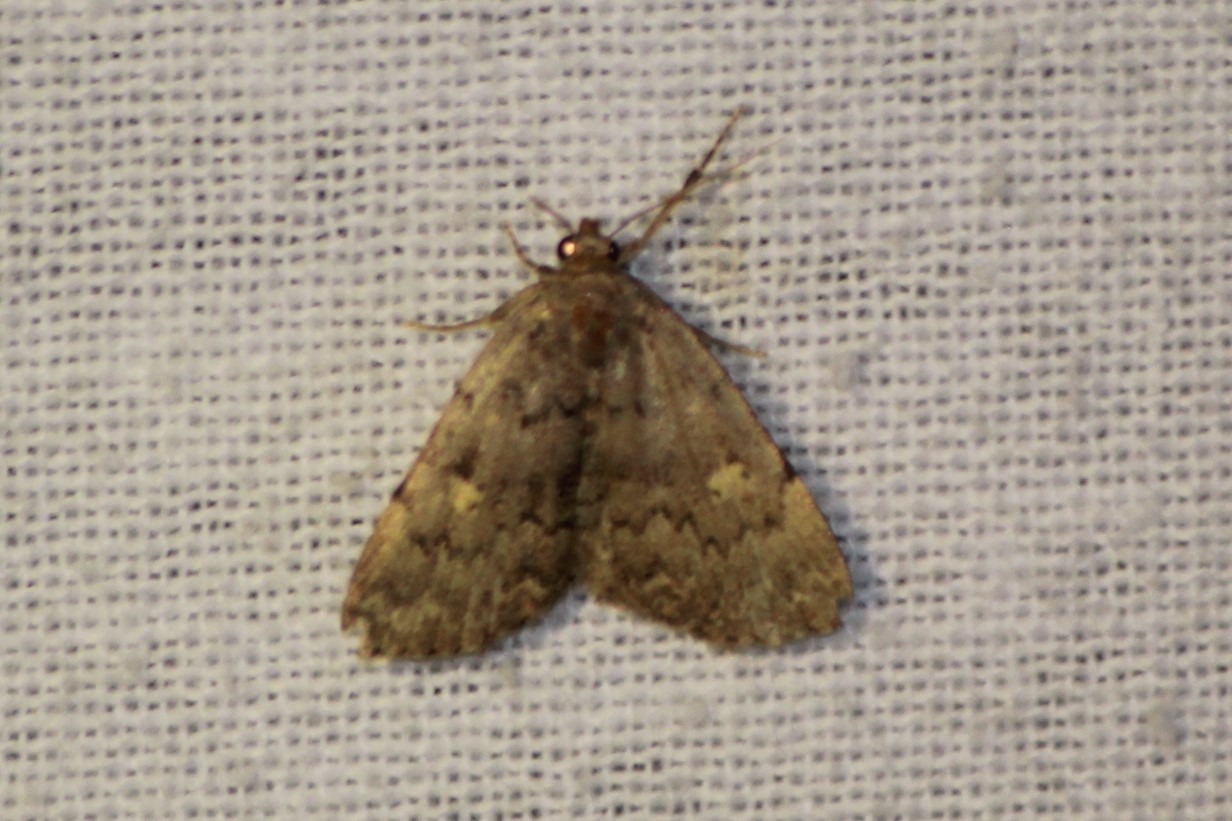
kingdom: Animalia
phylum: Arthropoda
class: Insecta
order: Lepidoptera
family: Erebidae
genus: Idia
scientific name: Idia aemula
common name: Common idia moth
